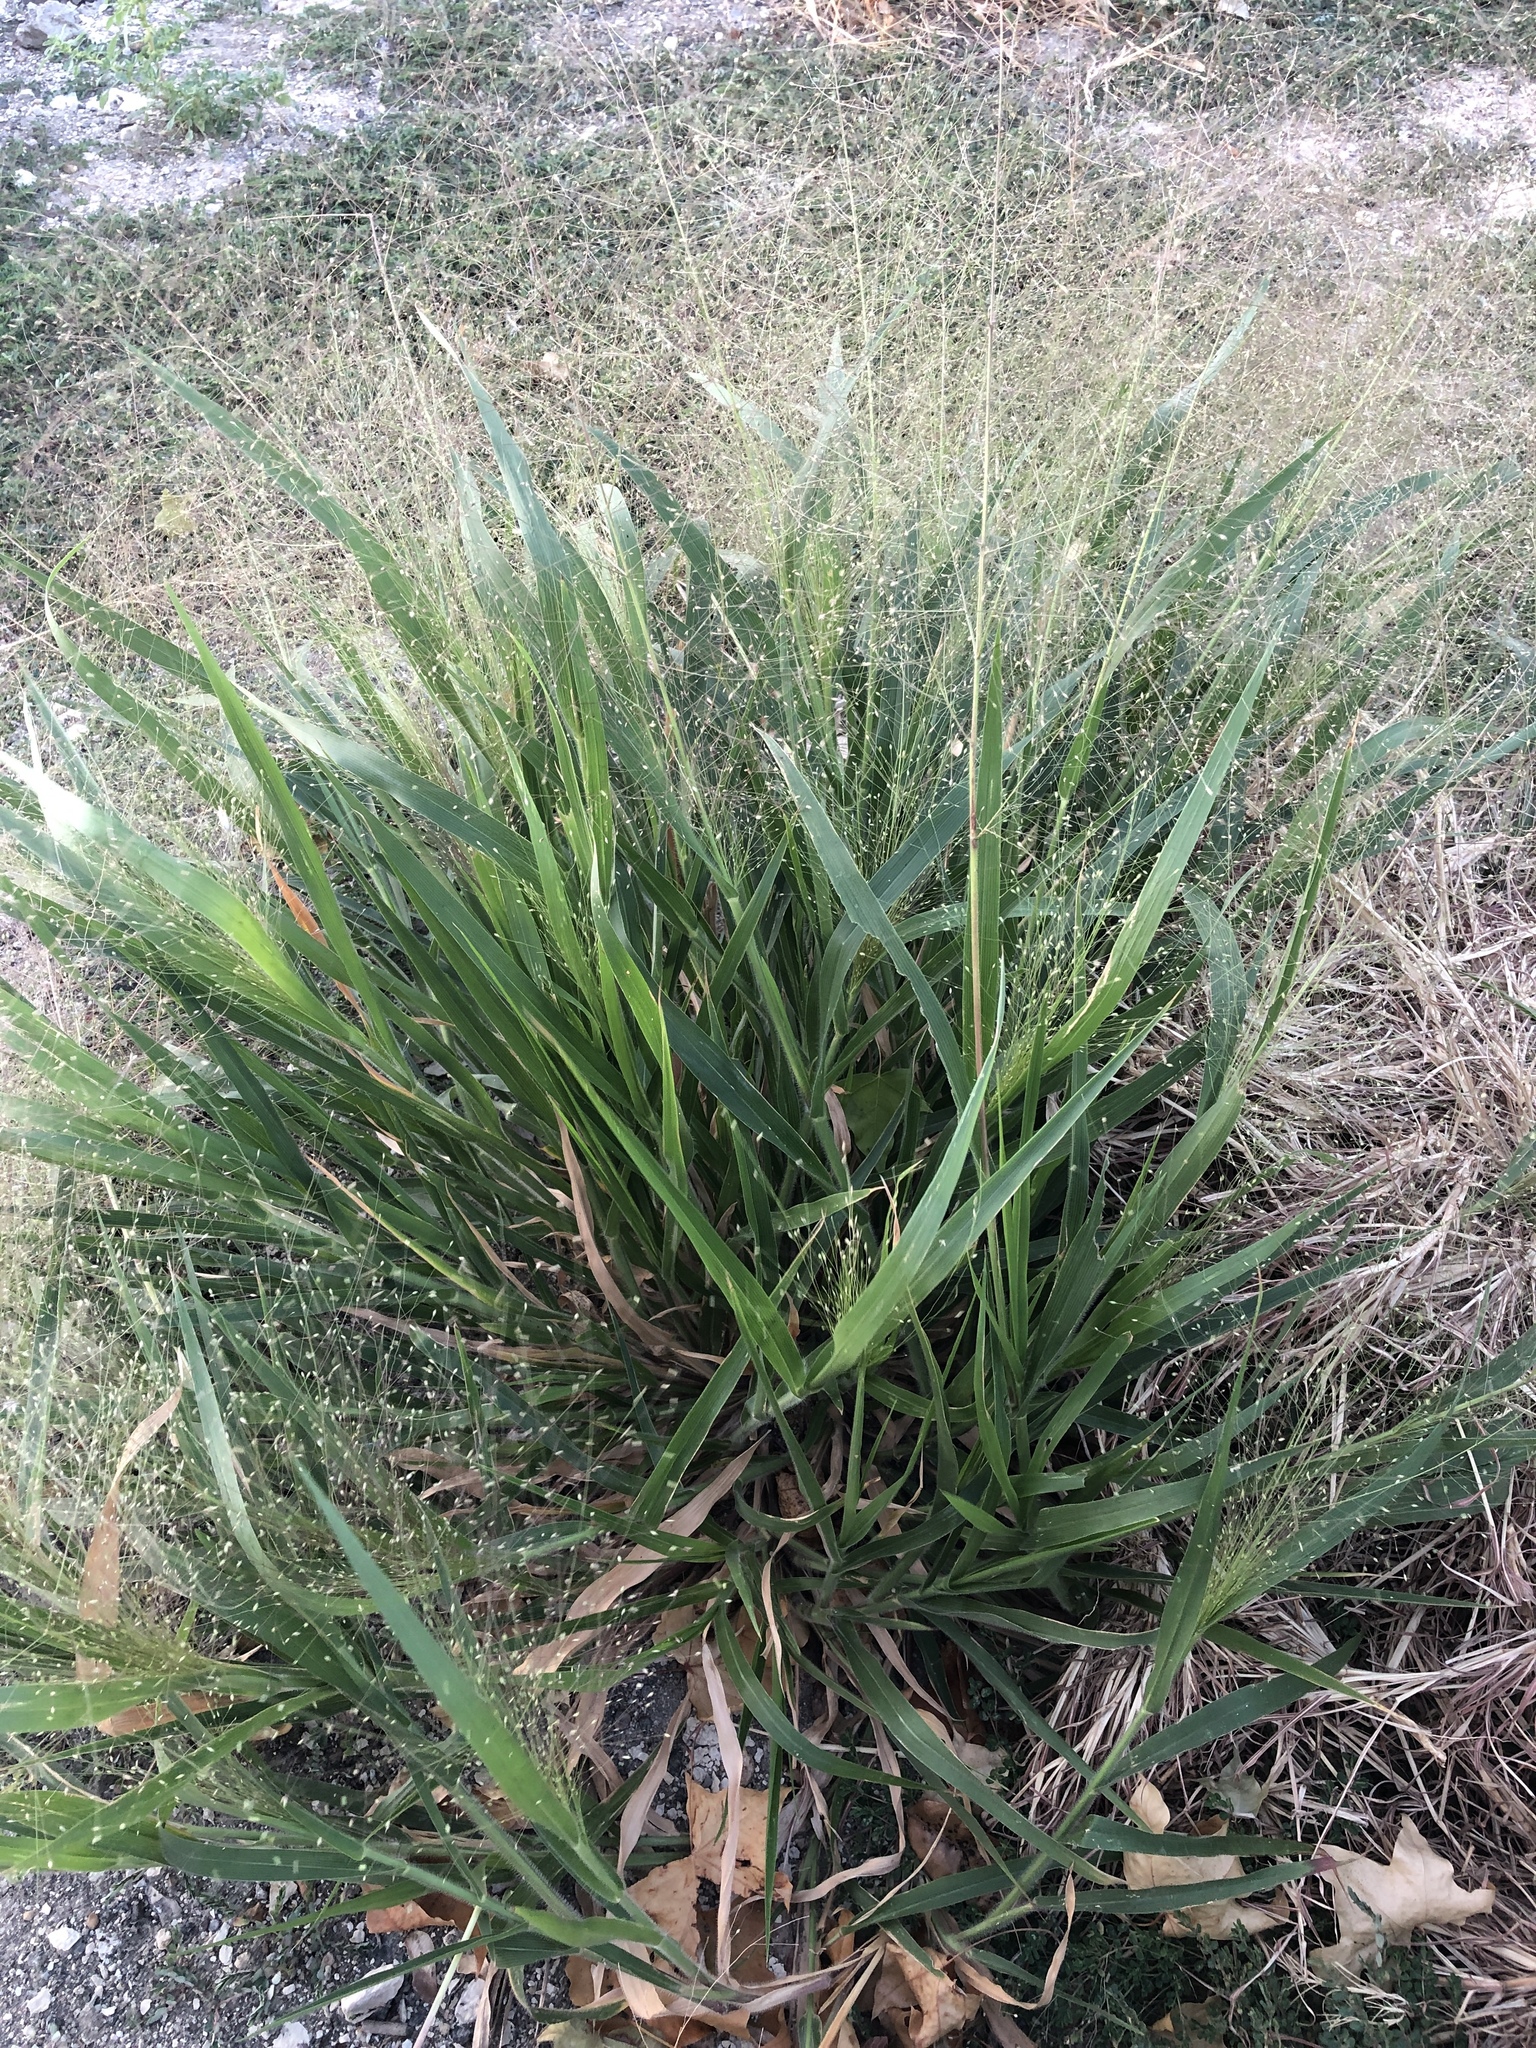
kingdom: Plantae
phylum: Tracheophyta
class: Liliopsida
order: Poales
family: Poaceae
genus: Panicum
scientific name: Panicum capillare
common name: Witch-grass
